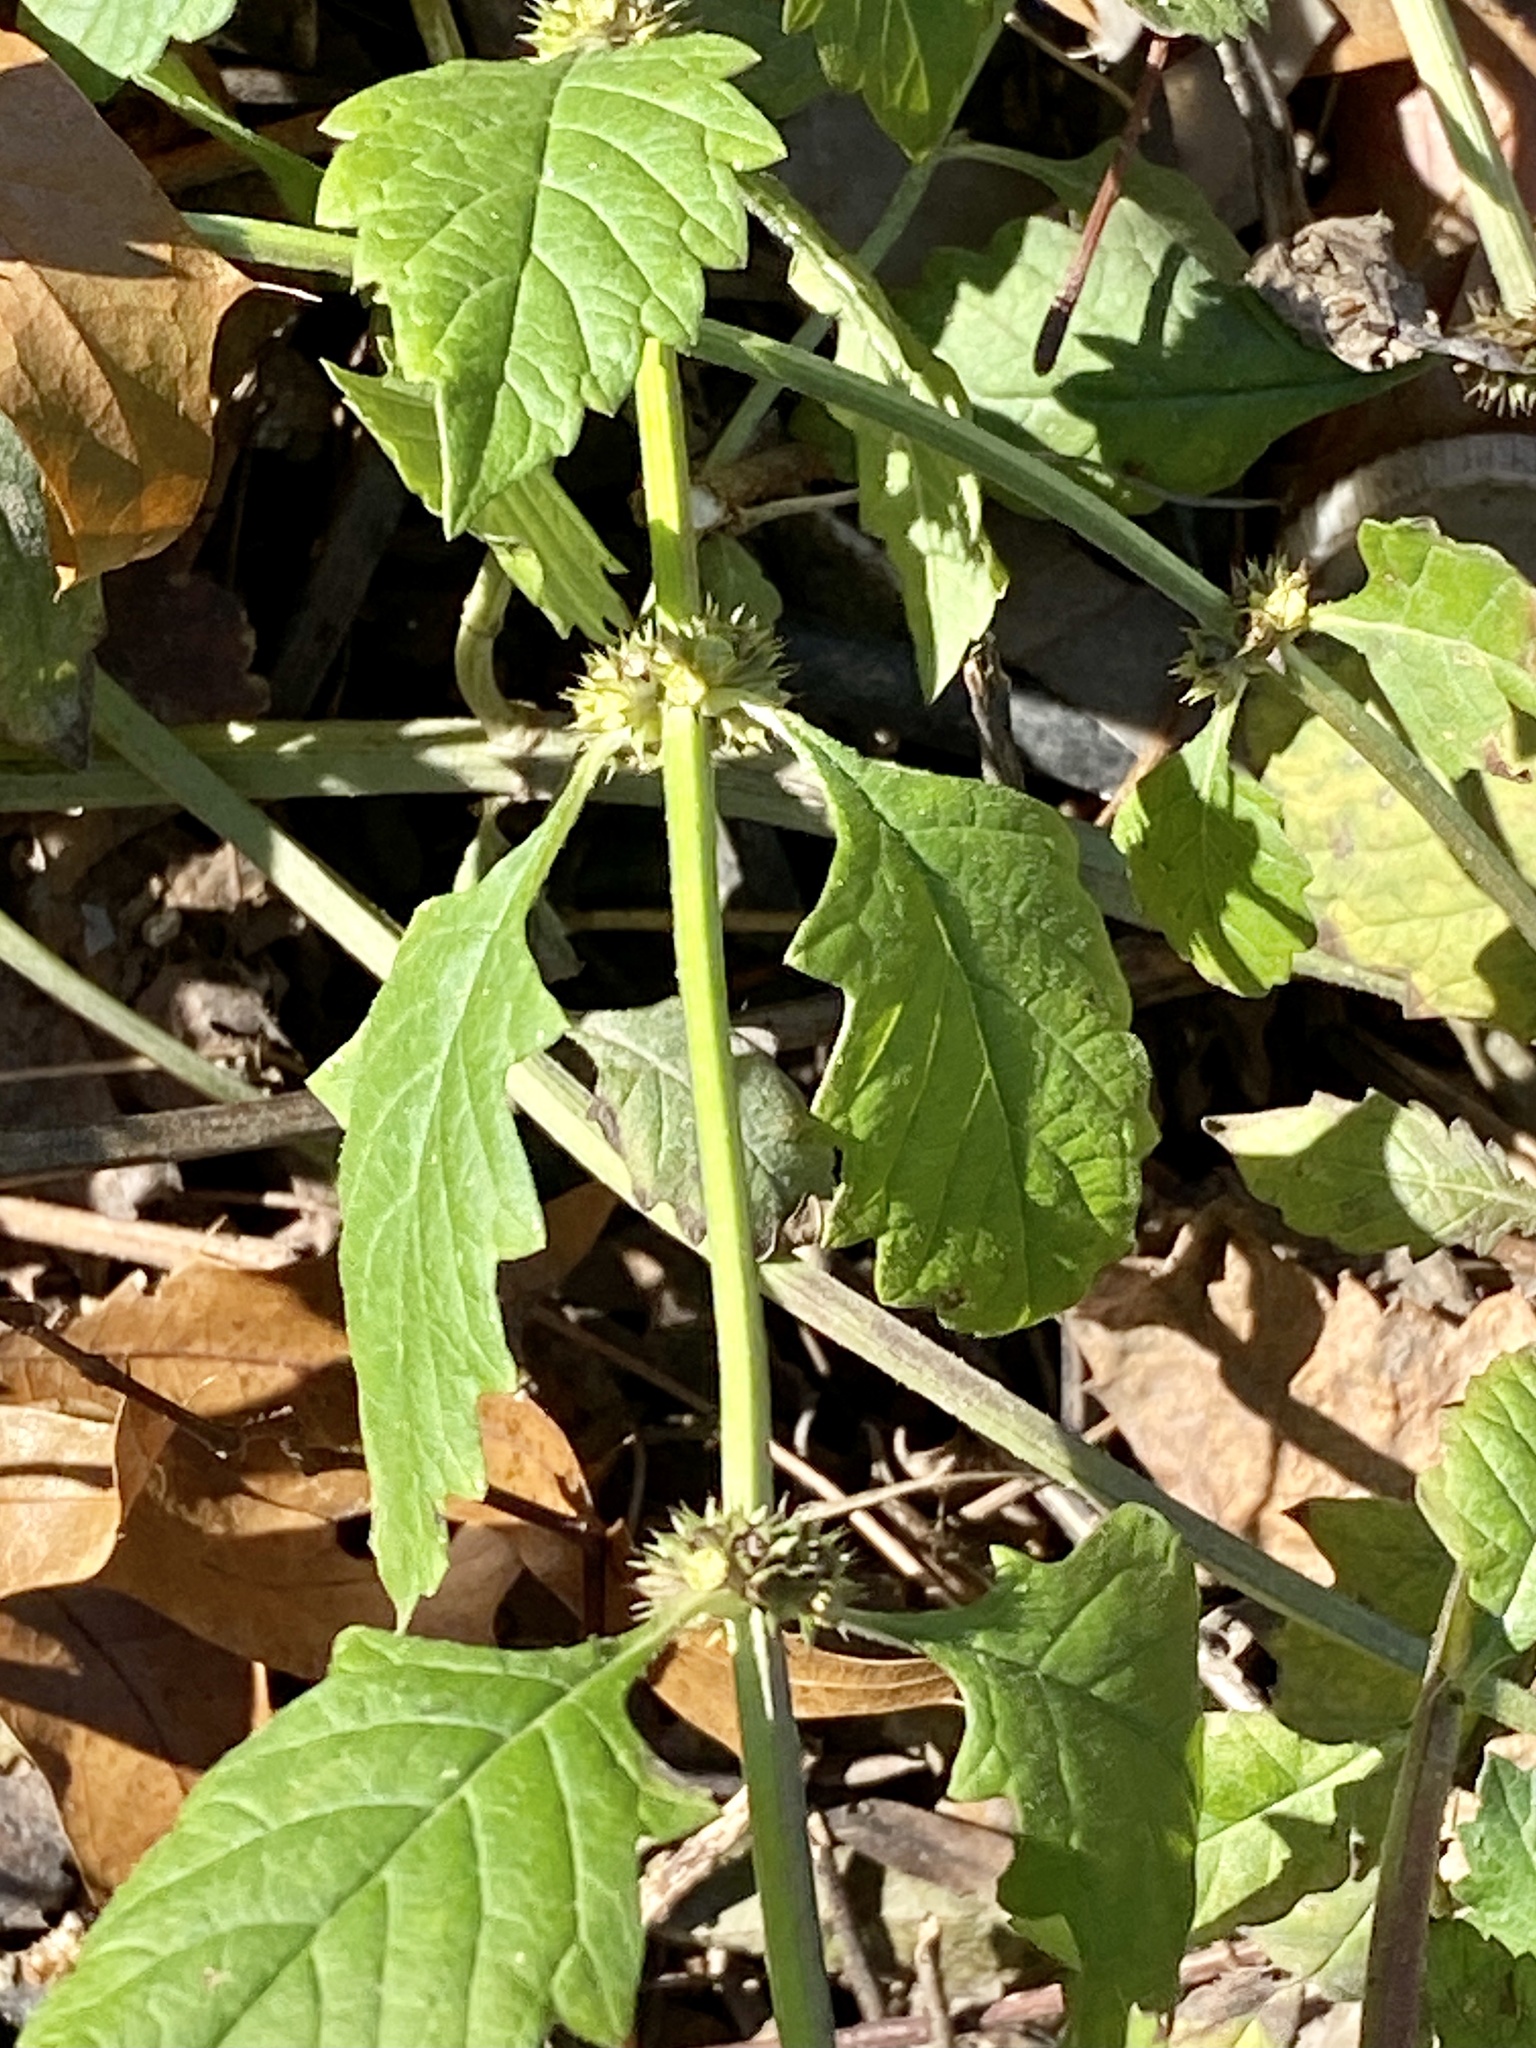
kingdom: Plantae
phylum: Tracheophyta
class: Magnoliopsida
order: Lamiales
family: Lamiaceae
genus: Lycopus
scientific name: Lycopus europaeus
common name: European bugleweed
